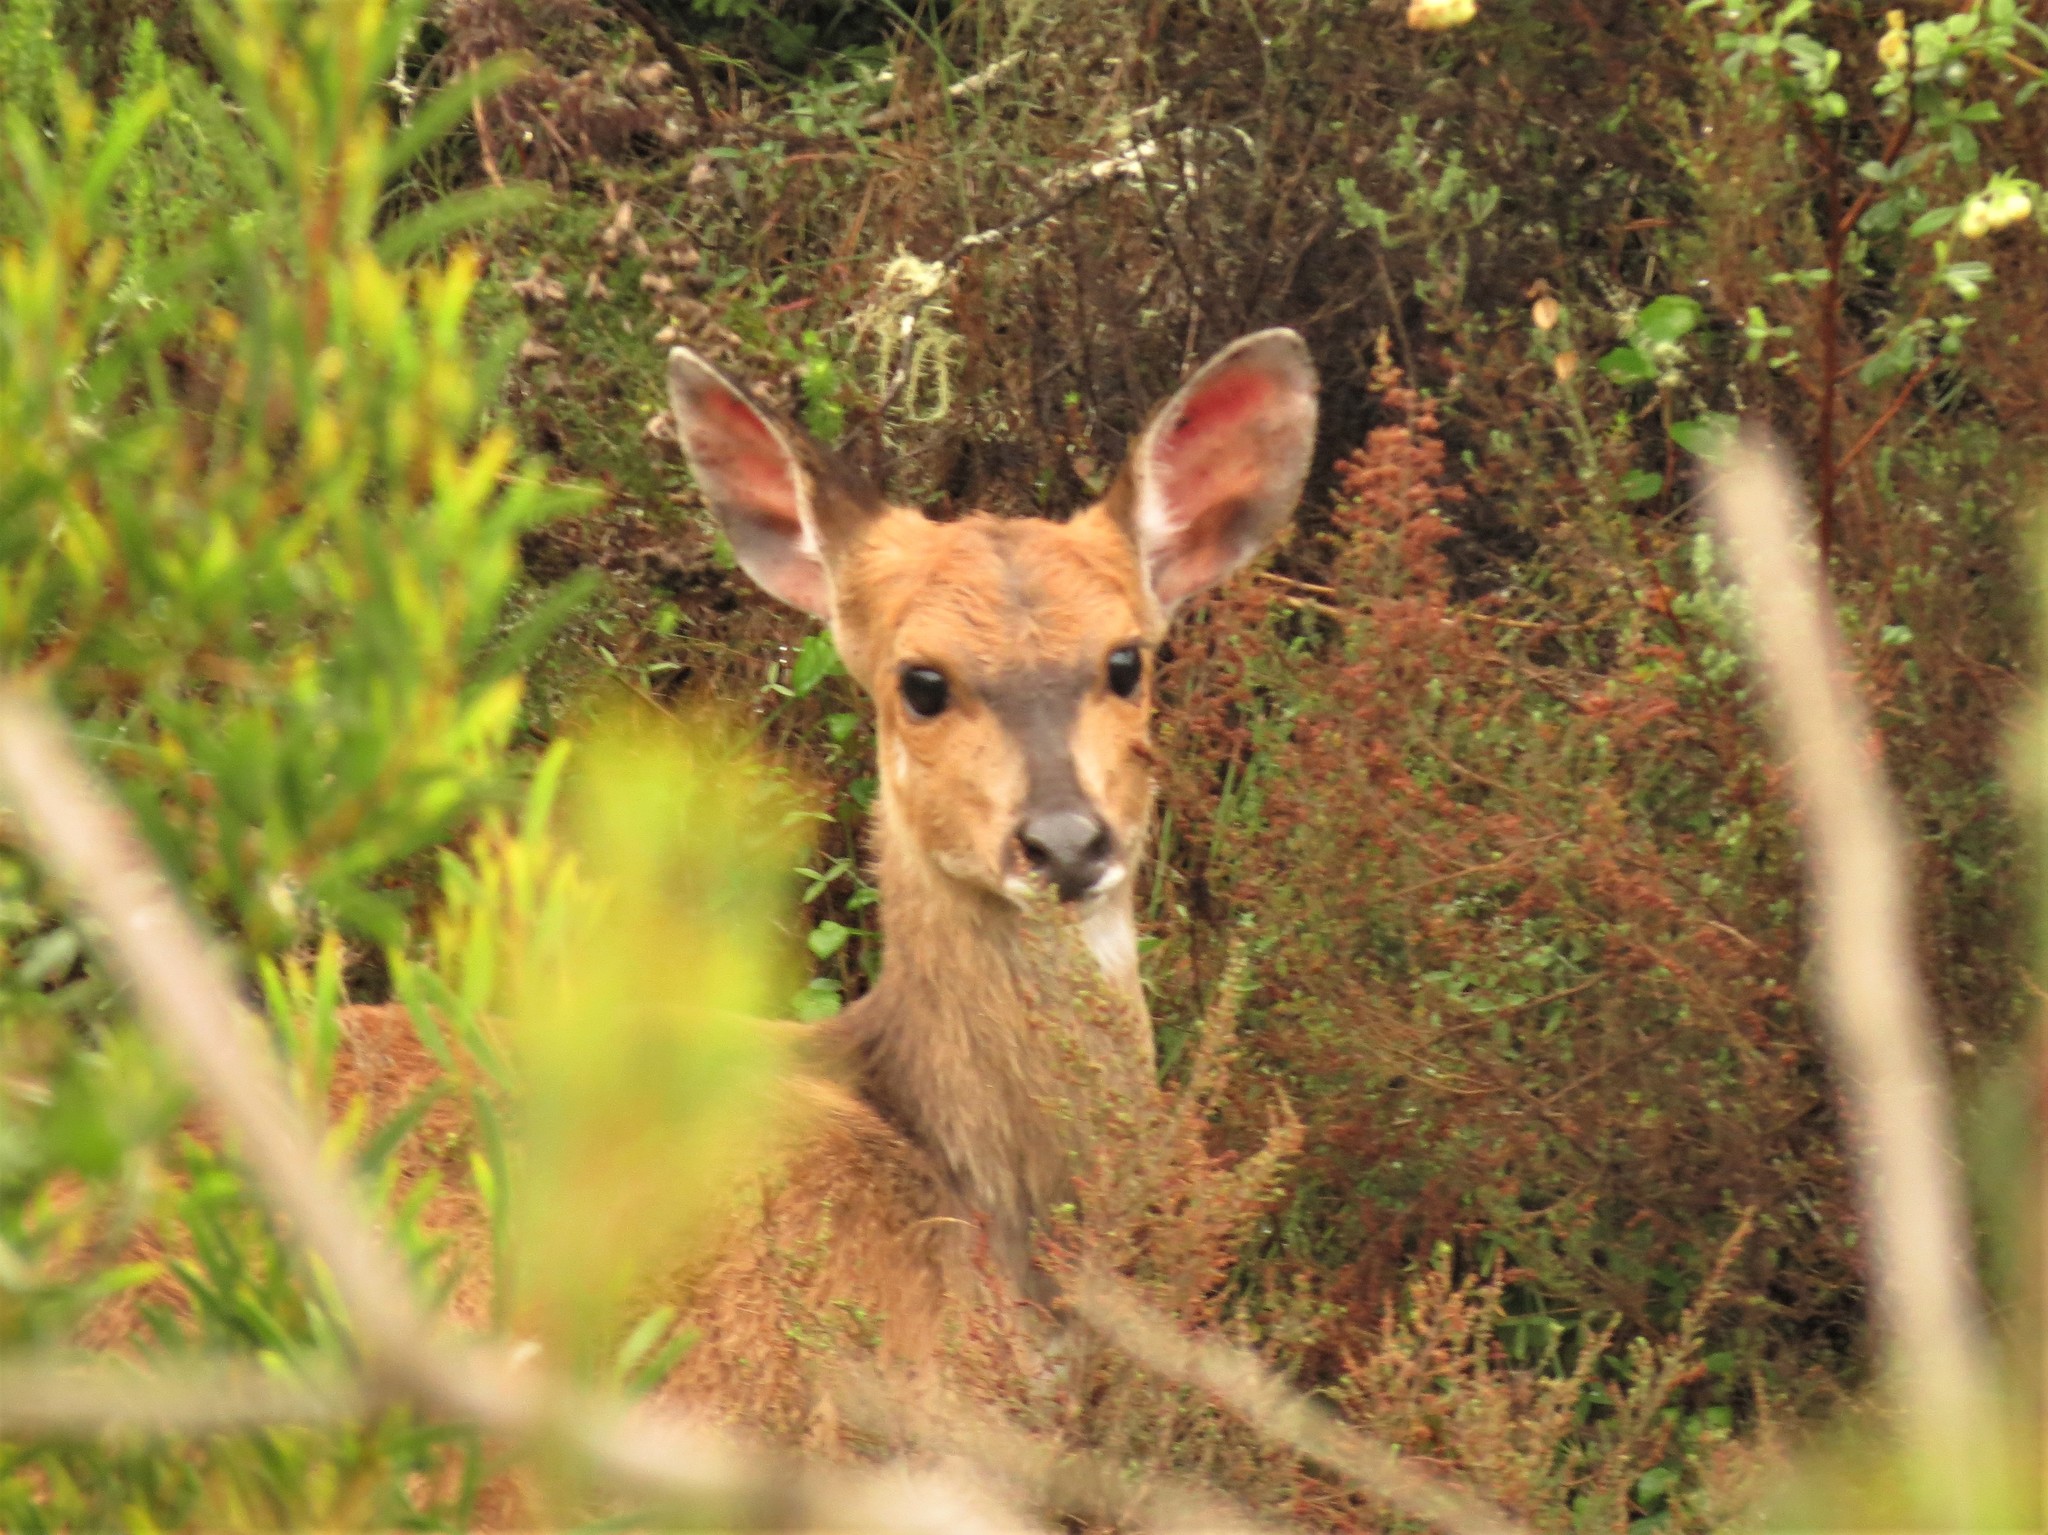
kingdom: Animalia
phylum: Chordata
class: Mammalia
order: Artiodactyla
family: Bovidae
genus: Tragelaphus
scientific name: Tragelaphus scriptus
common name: Bushbuck
